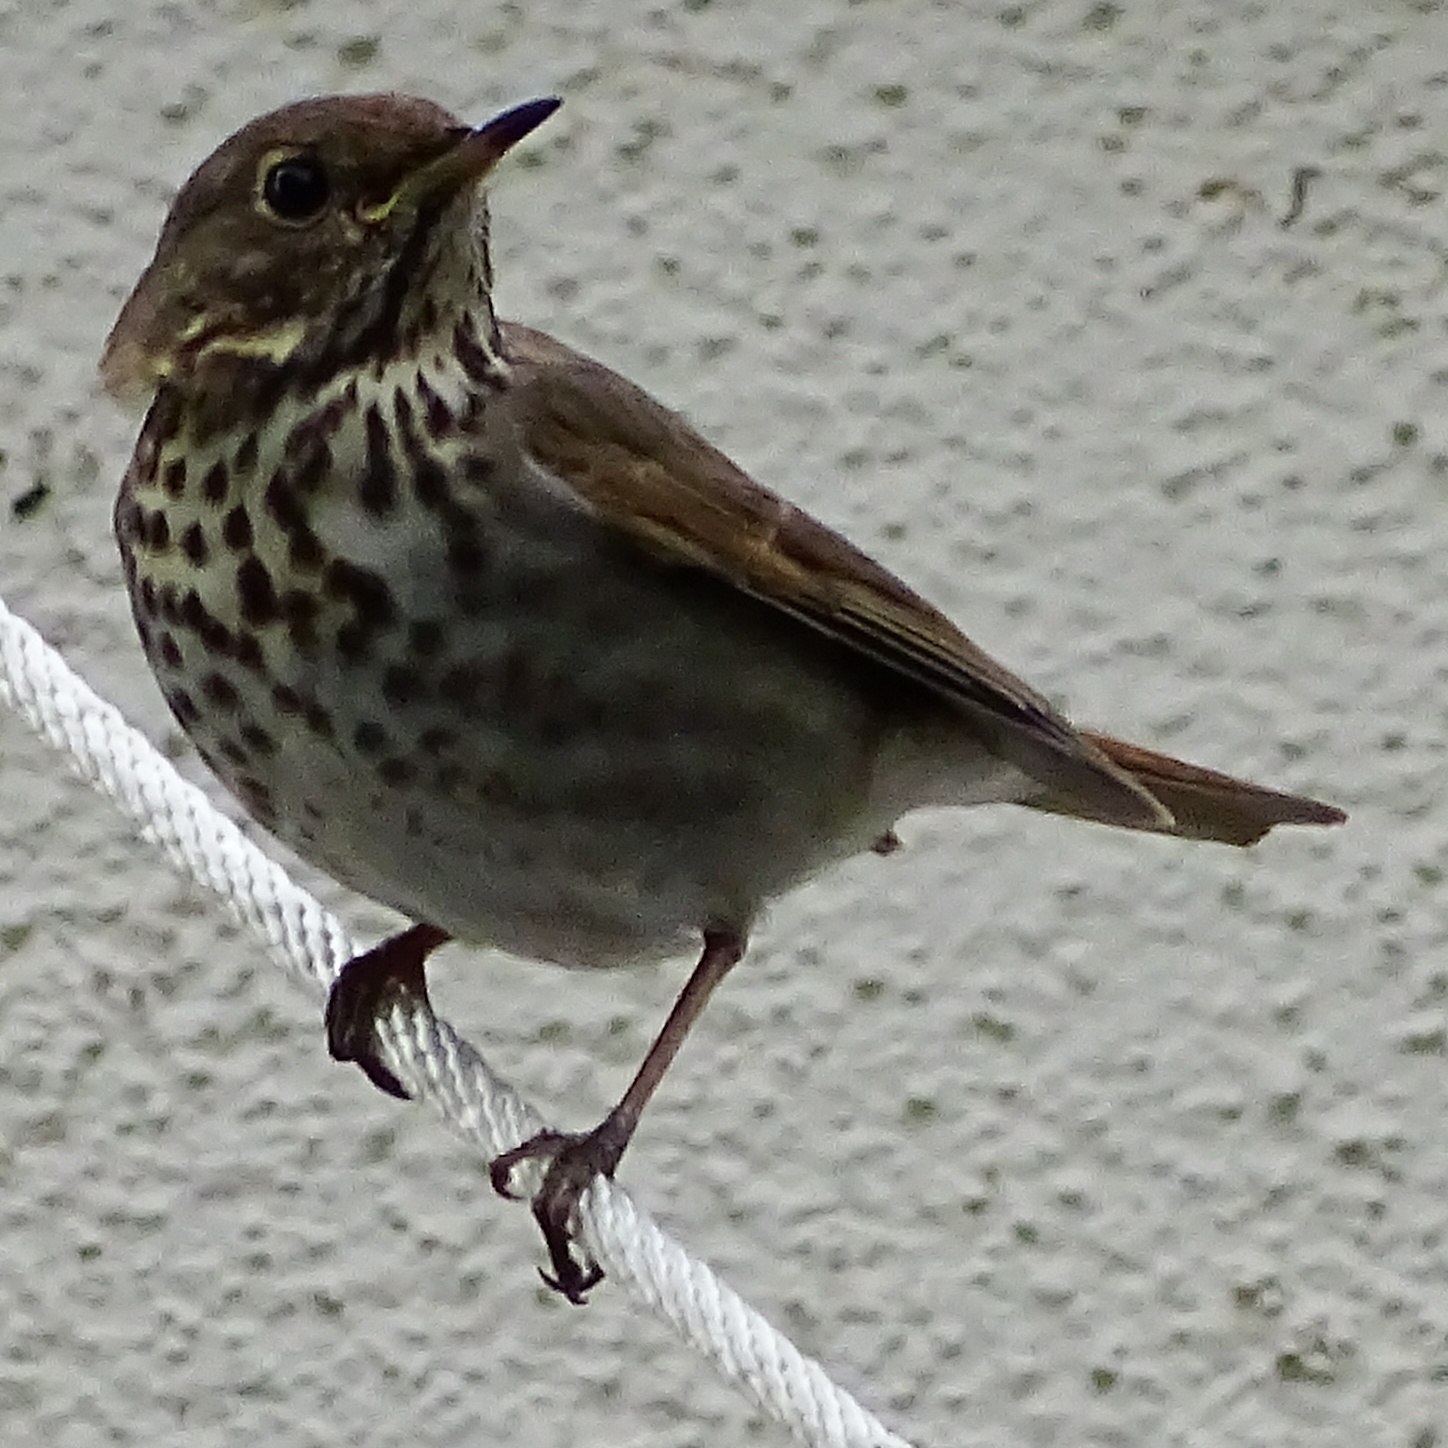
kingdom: Animalia
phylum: Chordata
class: Aves
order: Passeriformes
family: Turdidae
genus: Catharus
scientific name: Catharus guttatus
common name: Hermit thrush
